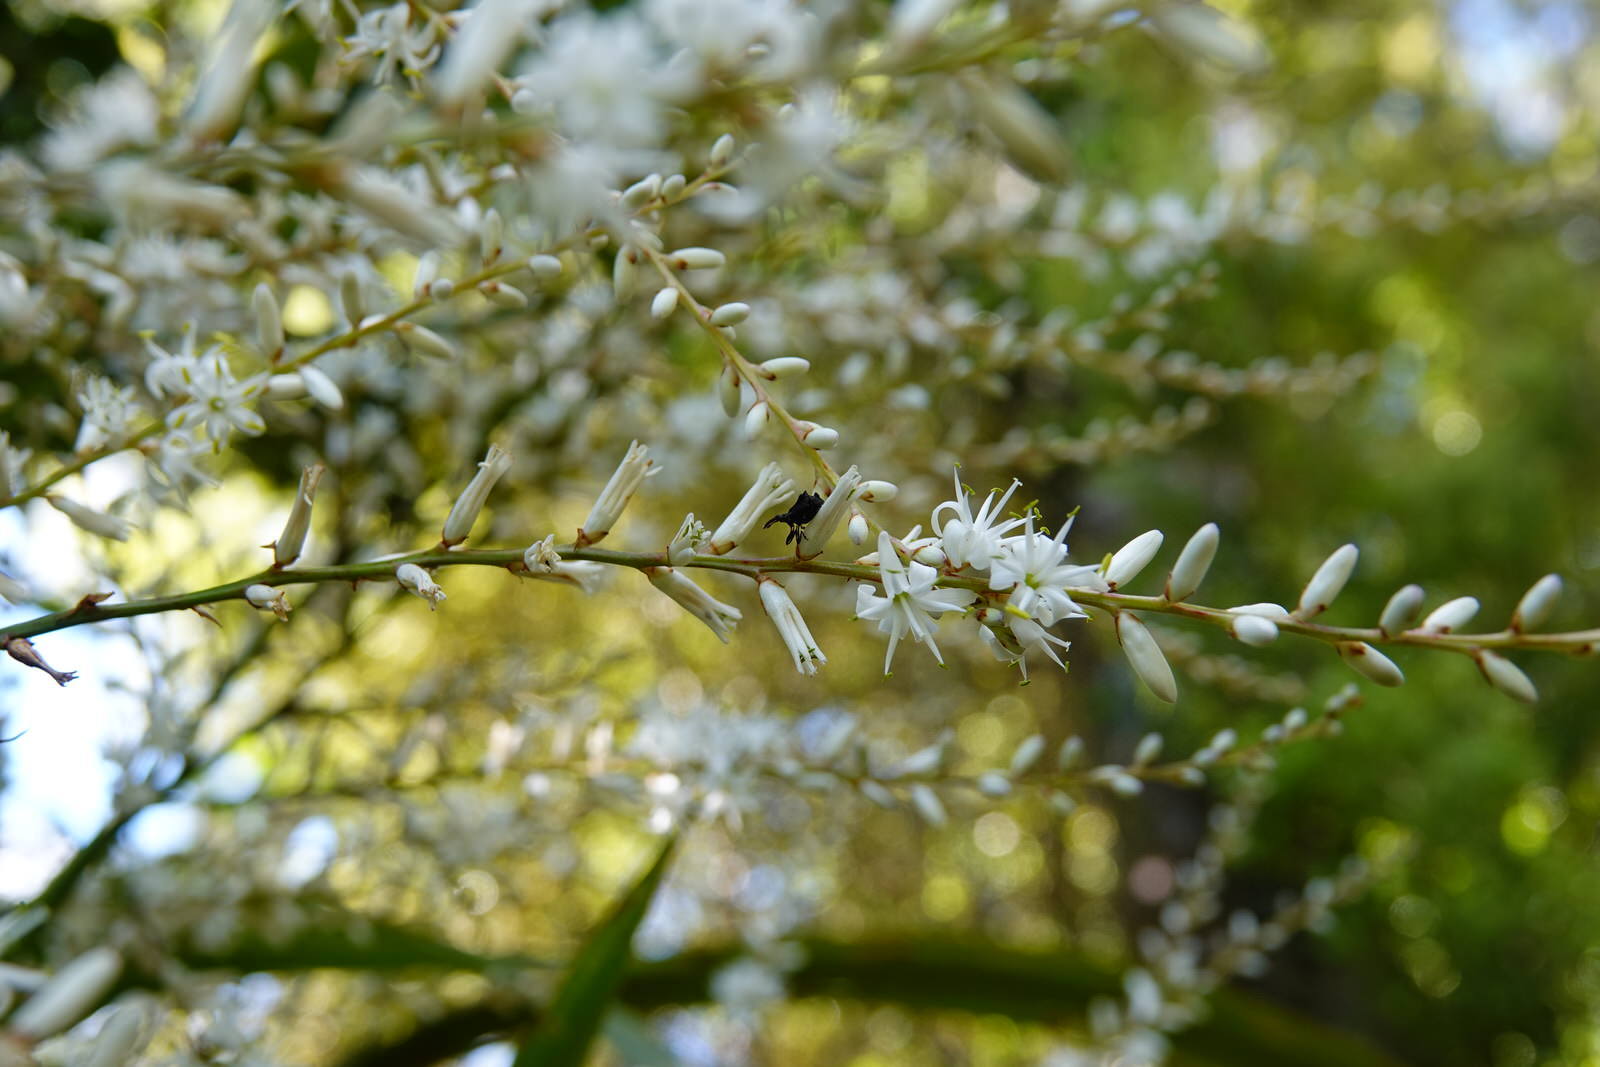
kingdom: Animalia
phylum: Arthropoda
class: Insecta
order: Coleoptera
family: Curculionidae
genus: Amylopterus
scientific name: Amylopterus pilosus
